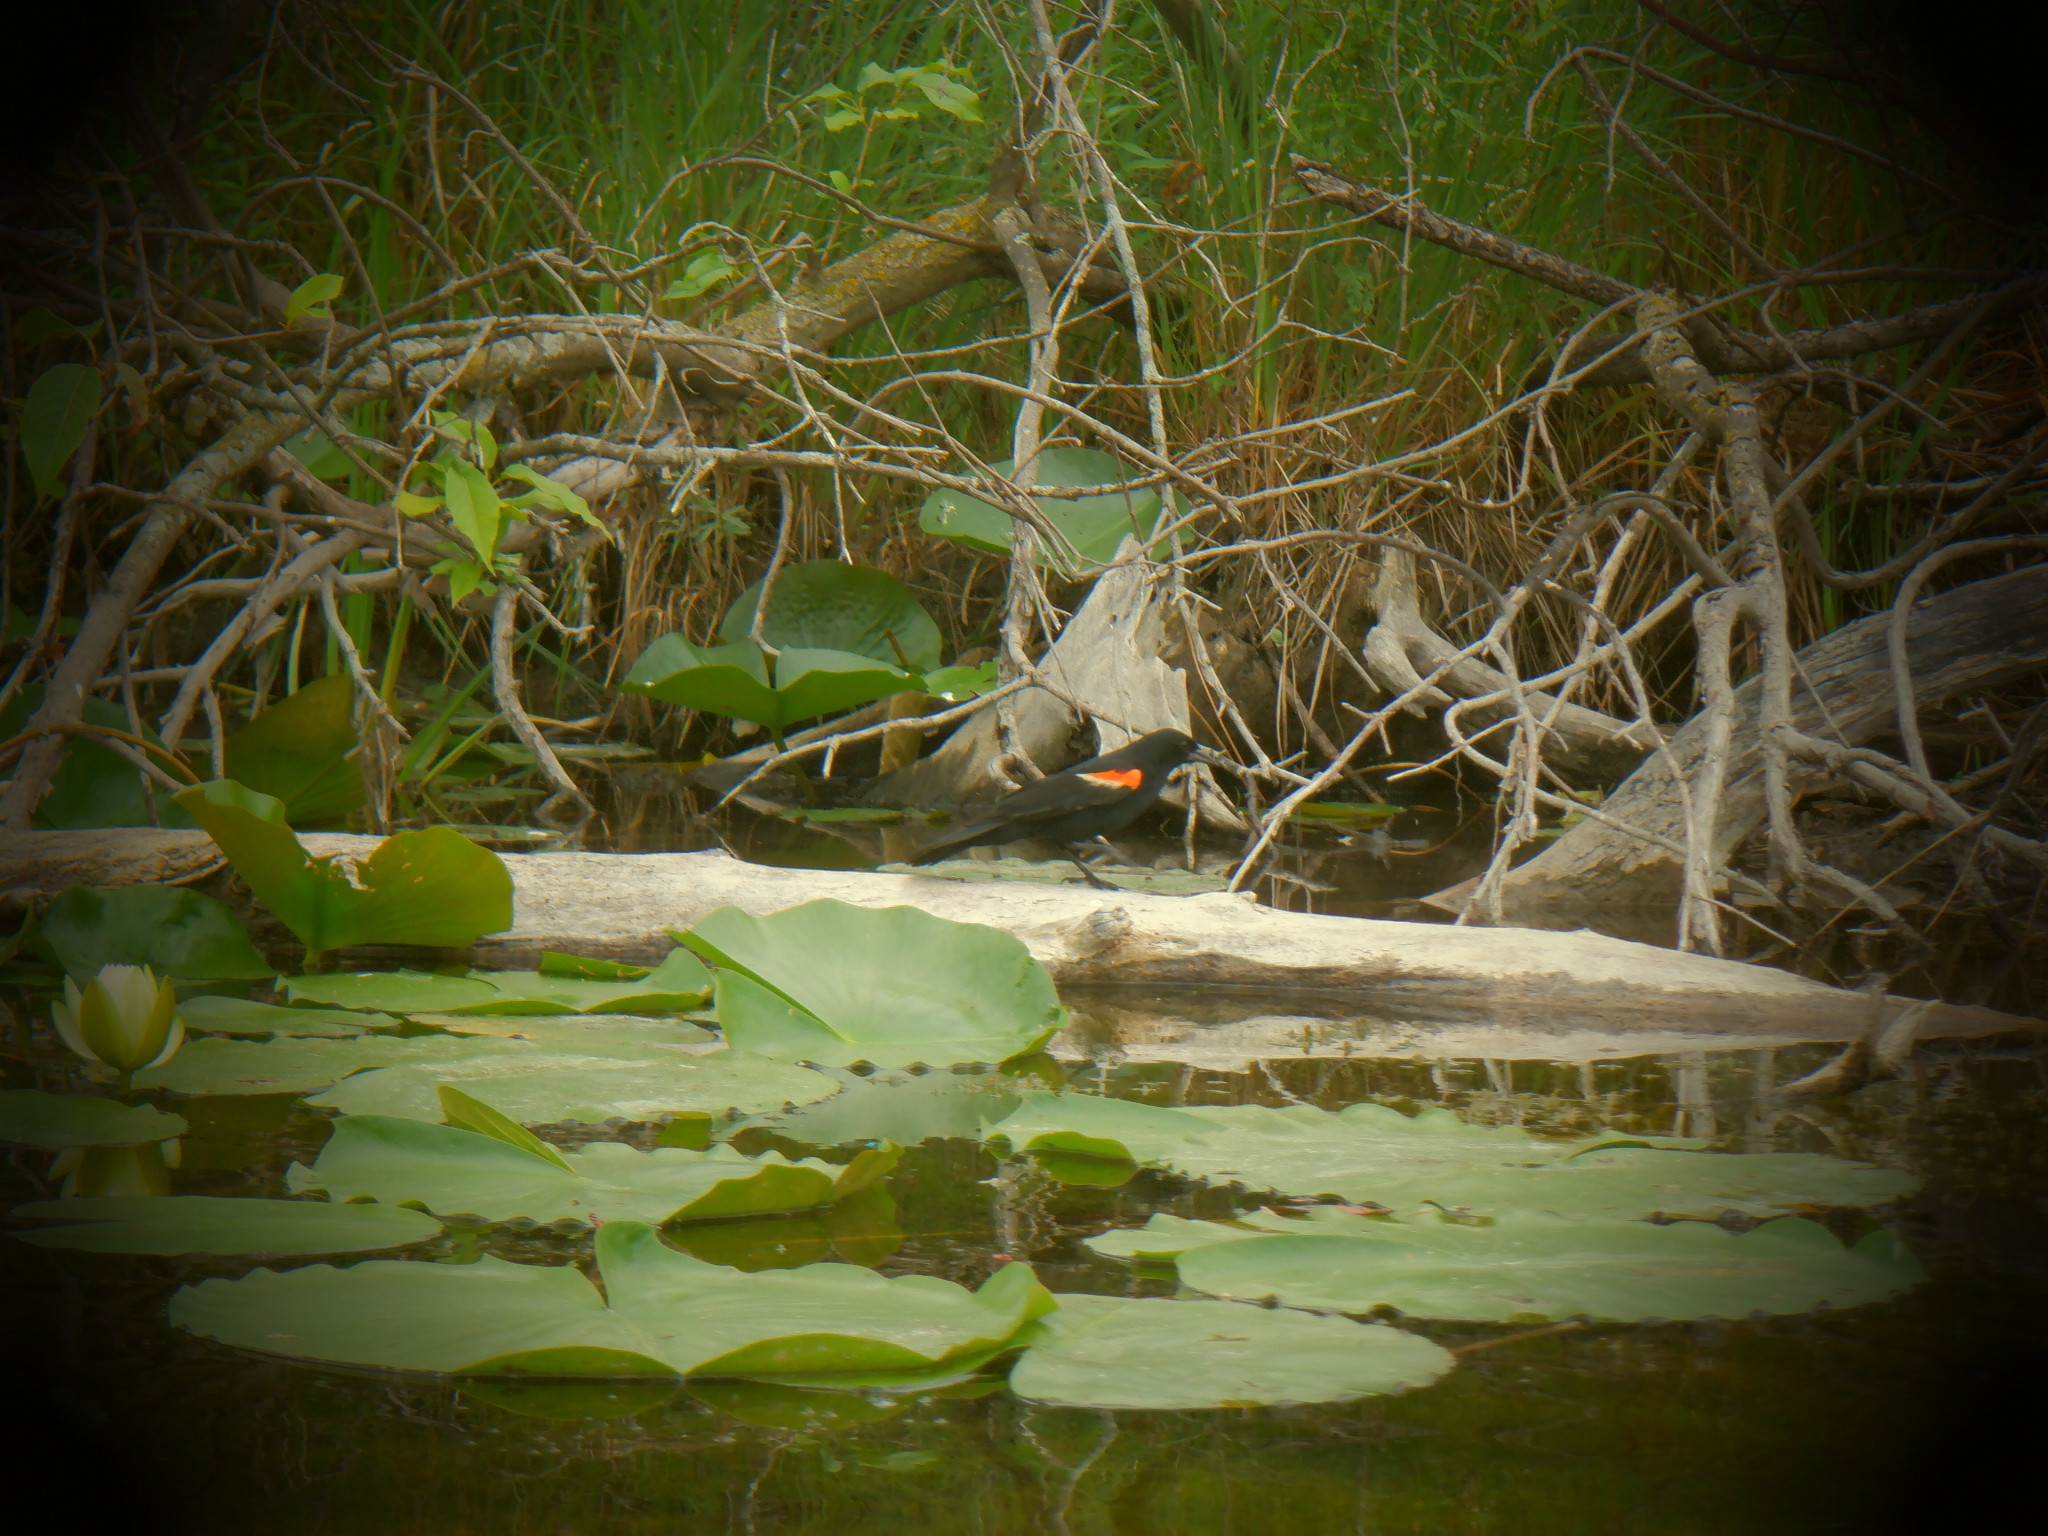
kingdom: Animalia
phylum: Chordata
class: Aves
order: Passeriformes
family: Icteridae
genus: Agelaius
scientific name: Agelaius phoeniceus
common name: Red-winged blackbird
